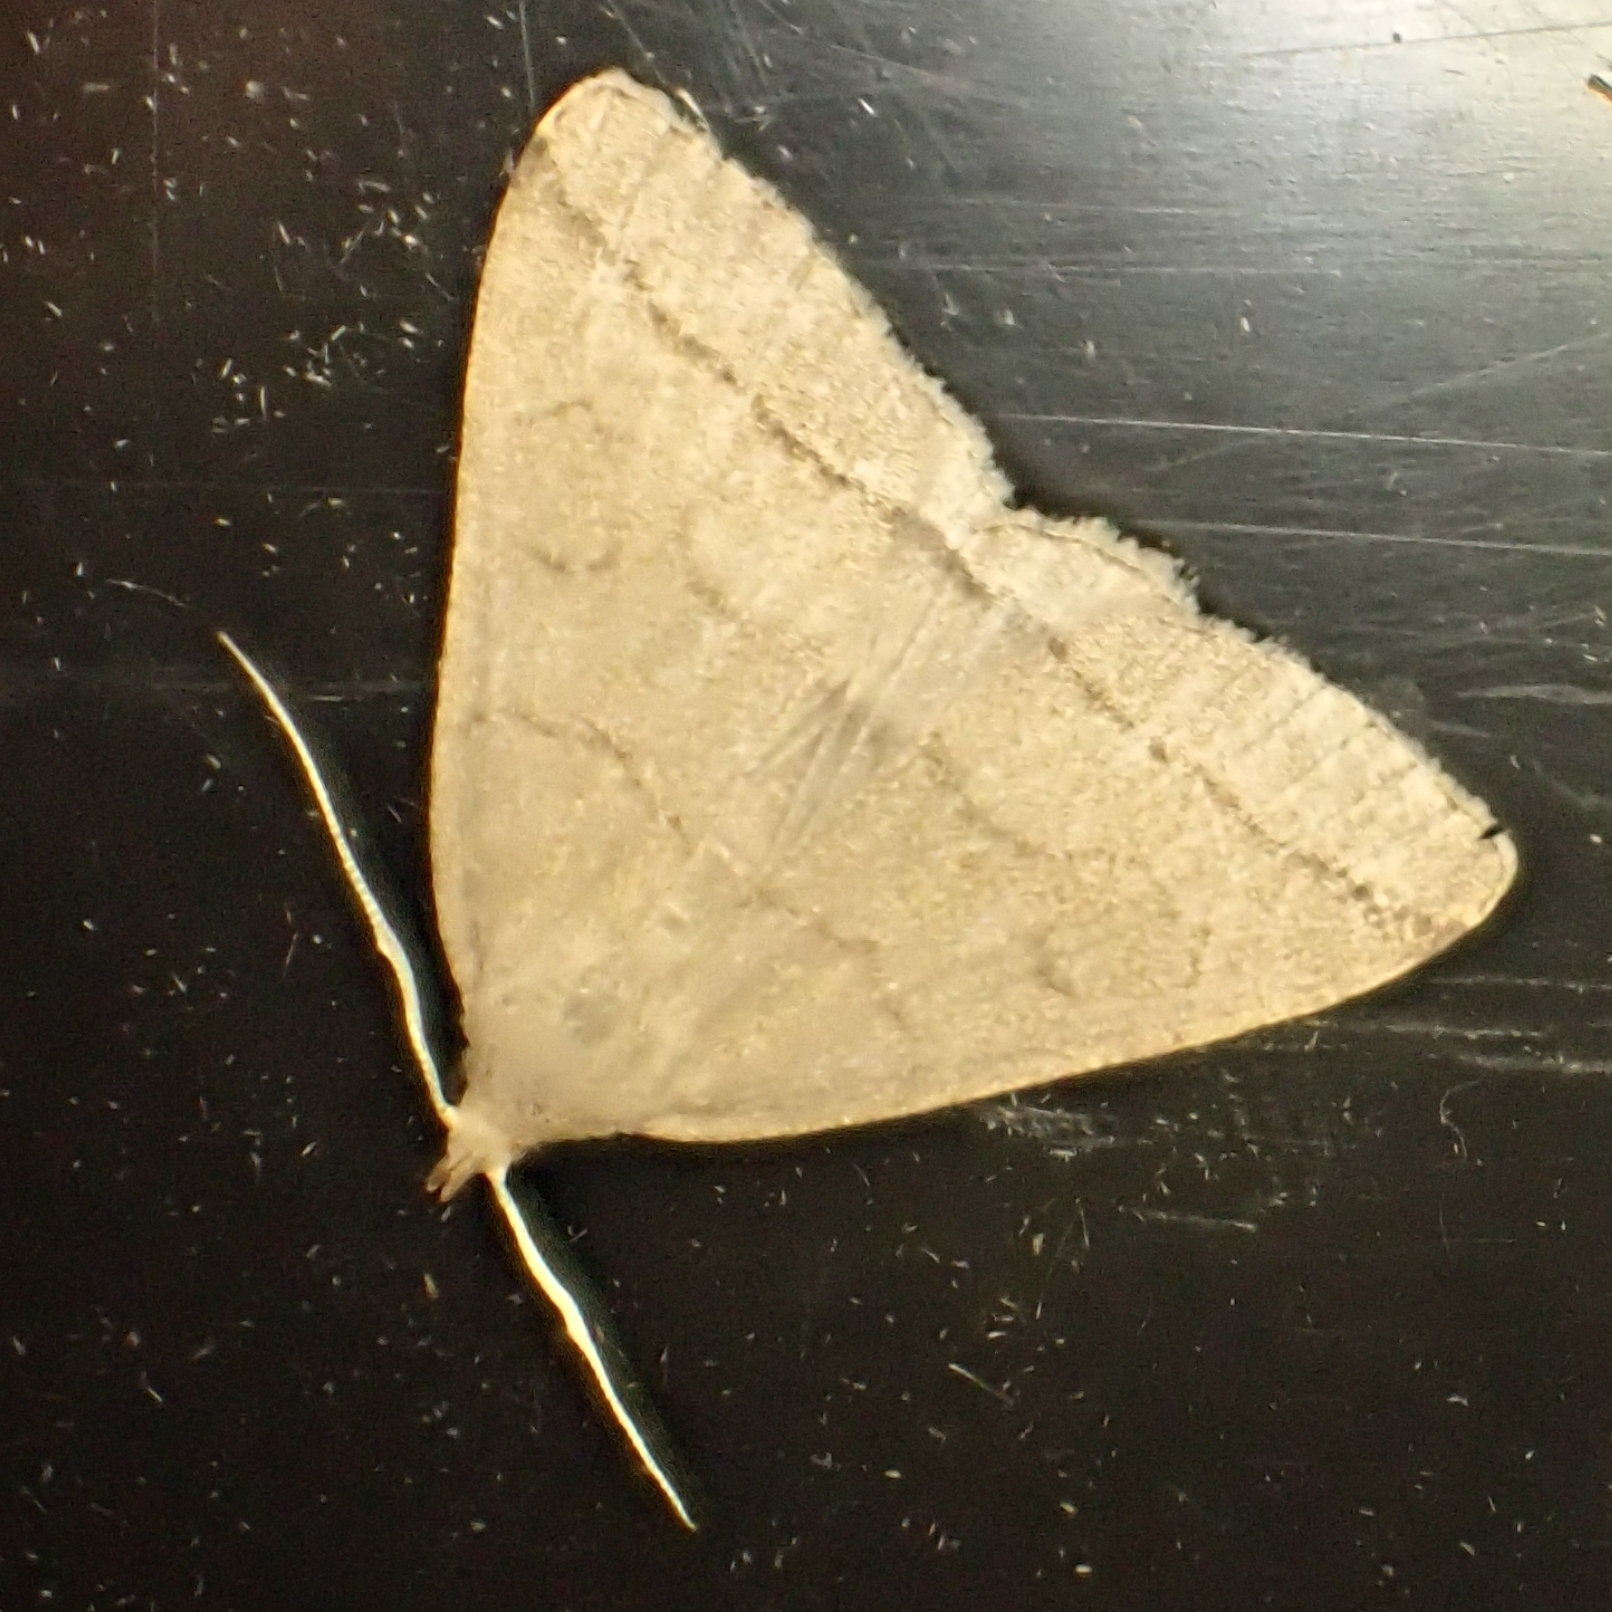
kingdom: Animalia
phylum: Arthropoda
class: Insecta
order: Lepidoptera
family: Erebidae
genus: Herminia
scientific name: Herminia tarsipennalis
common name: Fan-foot
